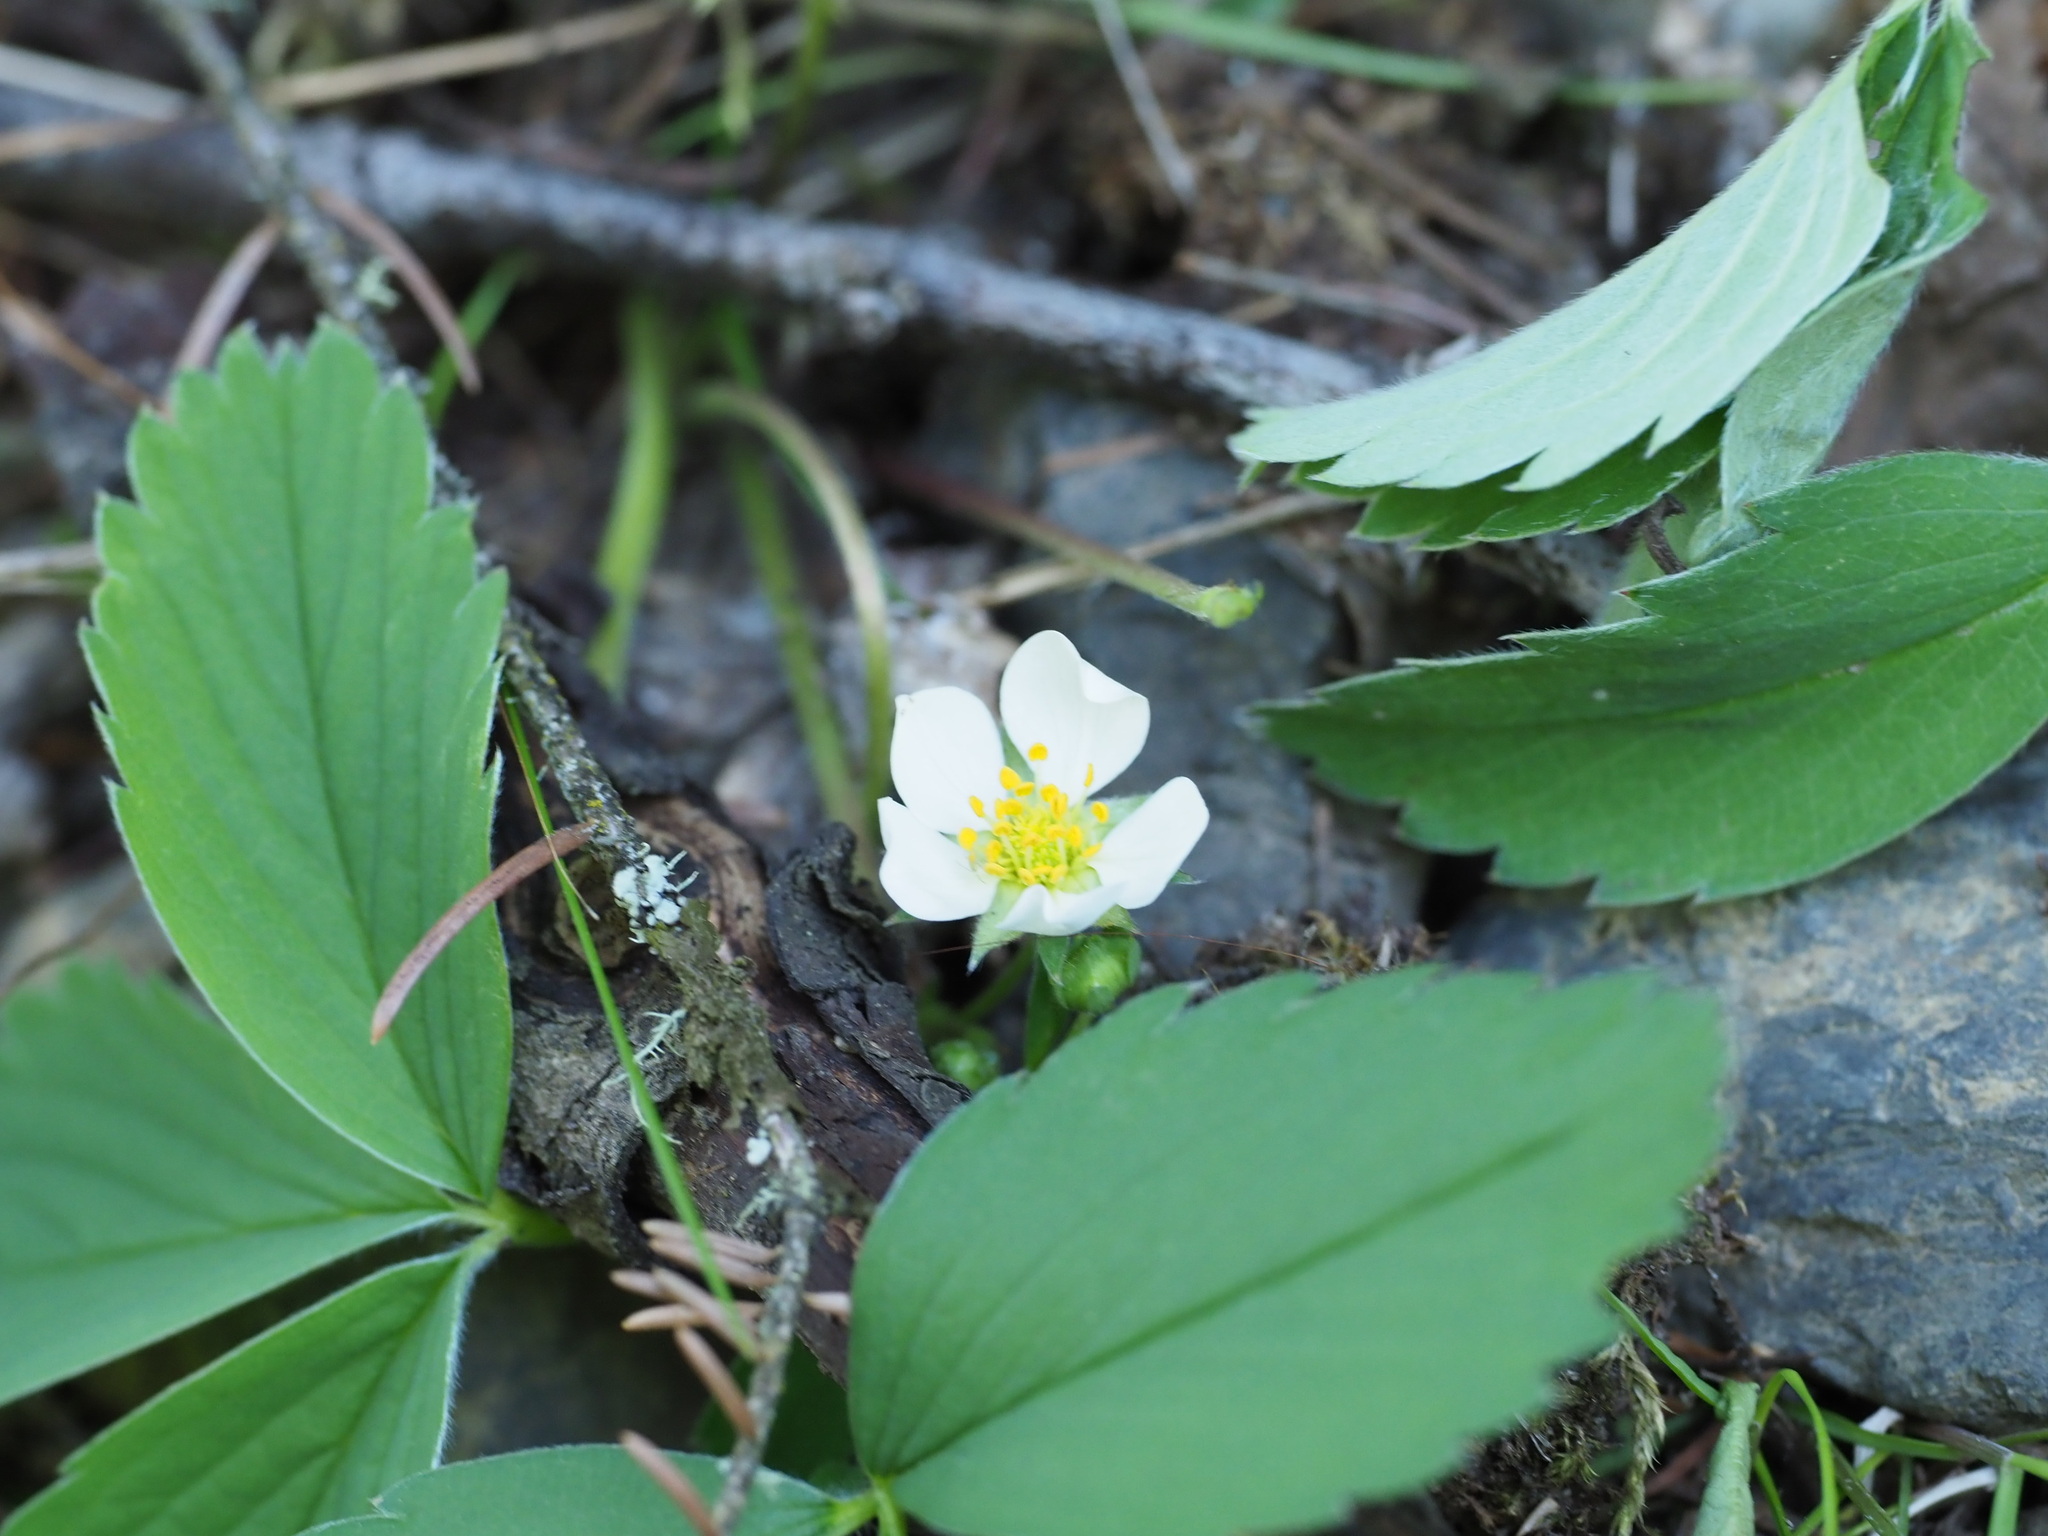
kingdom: Plantae
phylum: Tracheophyta
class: Magnoliopsida
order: Rosales
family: Rosaceae
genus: Fragaria
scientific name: Fragaria virginiana
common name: Thickleaved wild strawberry
